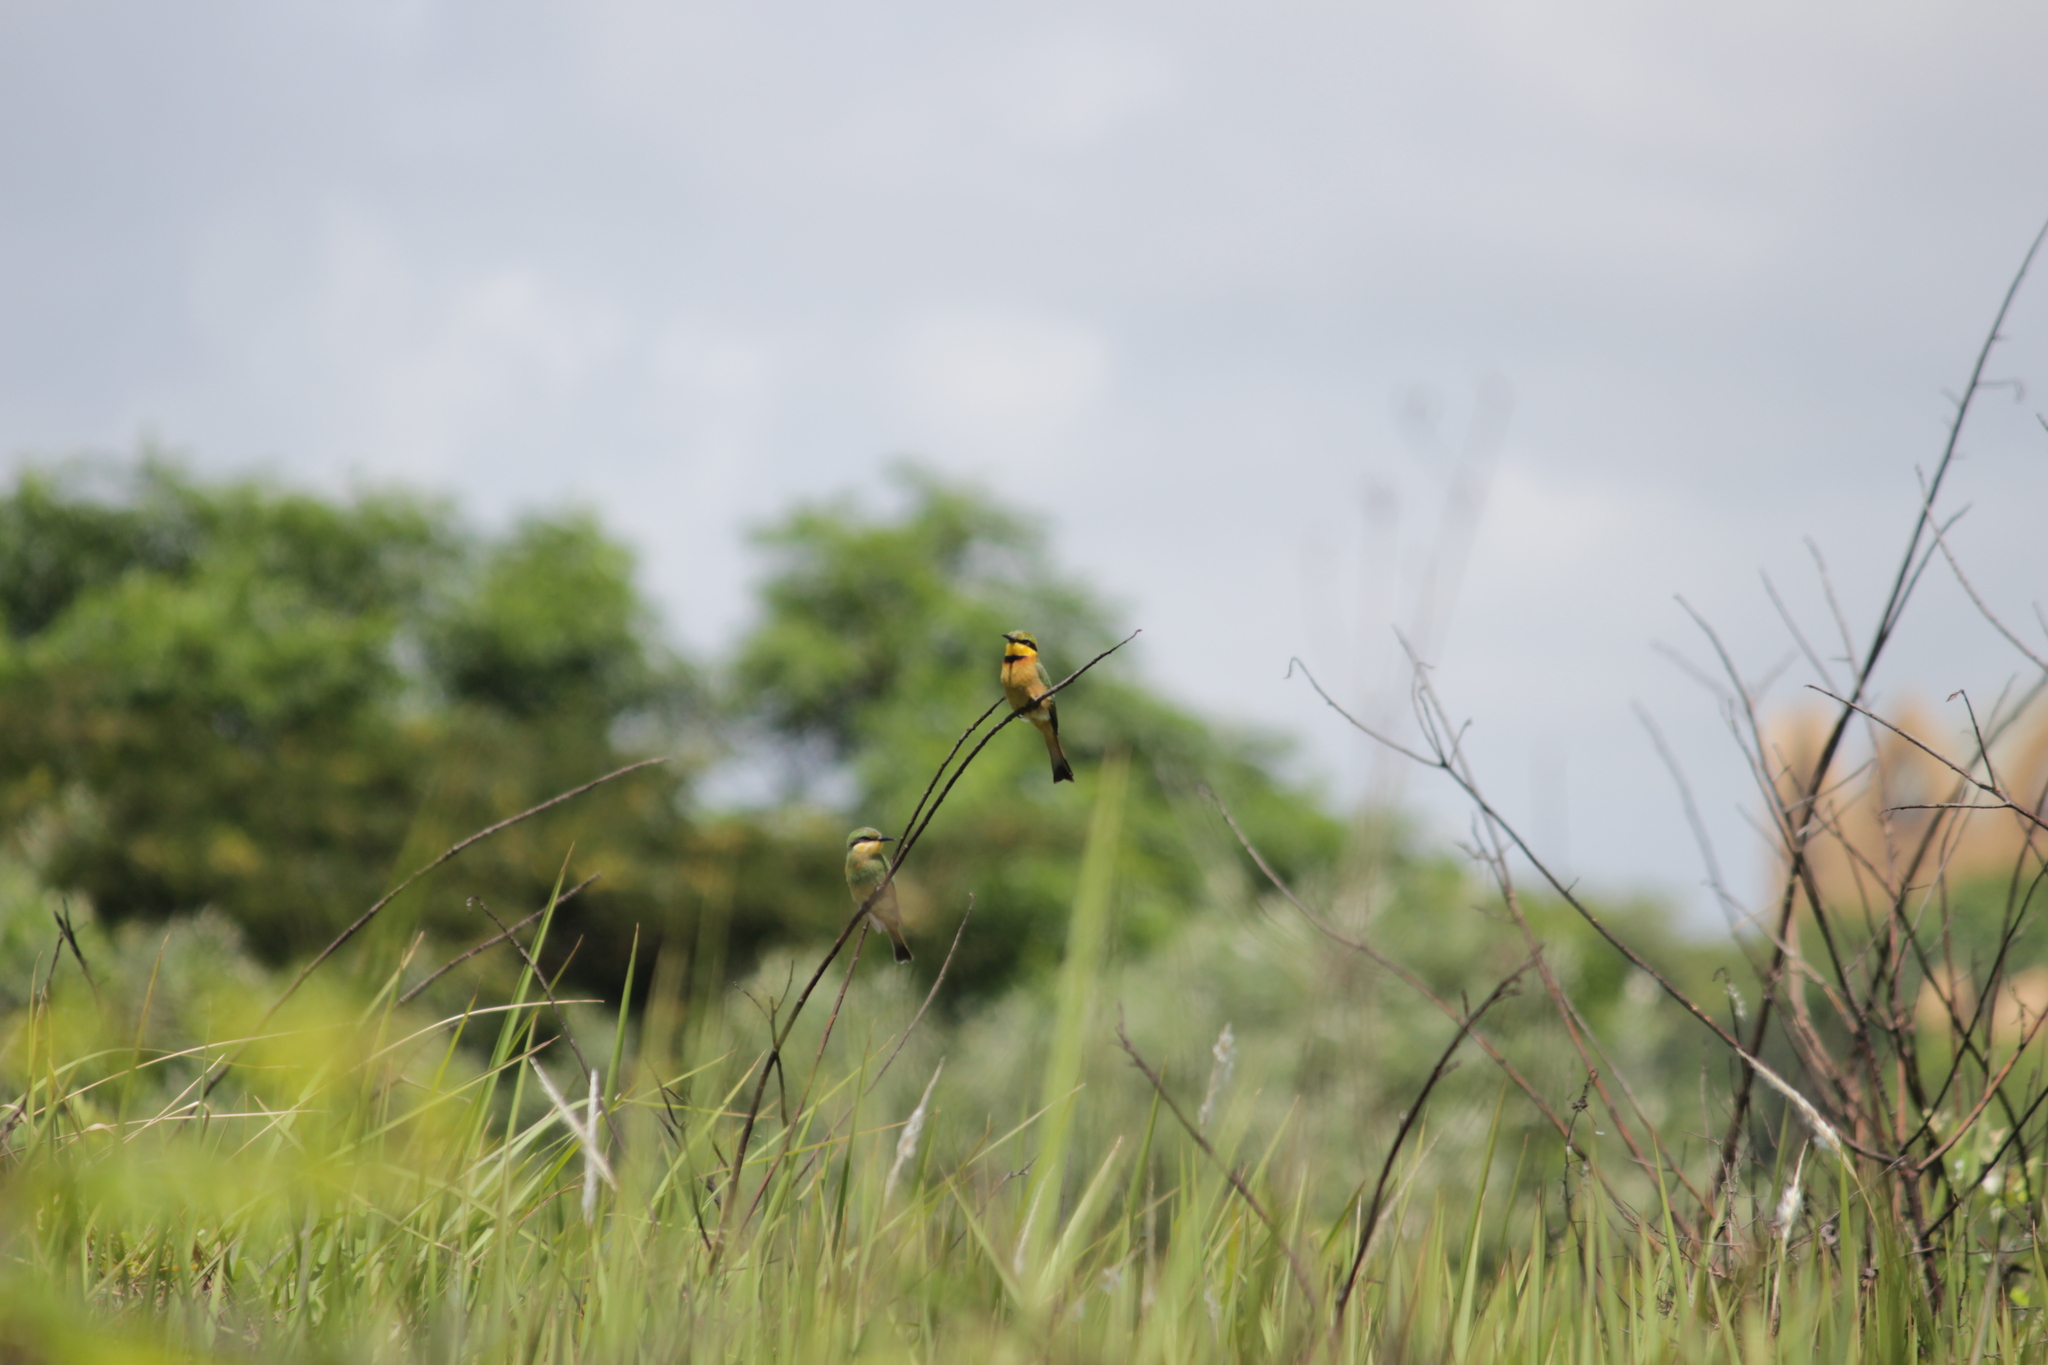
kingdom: Animalia
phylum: Chordata
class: Aves
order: Coraciiformes
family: Meropidae
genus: Merops
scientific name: Merops pusillus
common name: Little bee-eater
